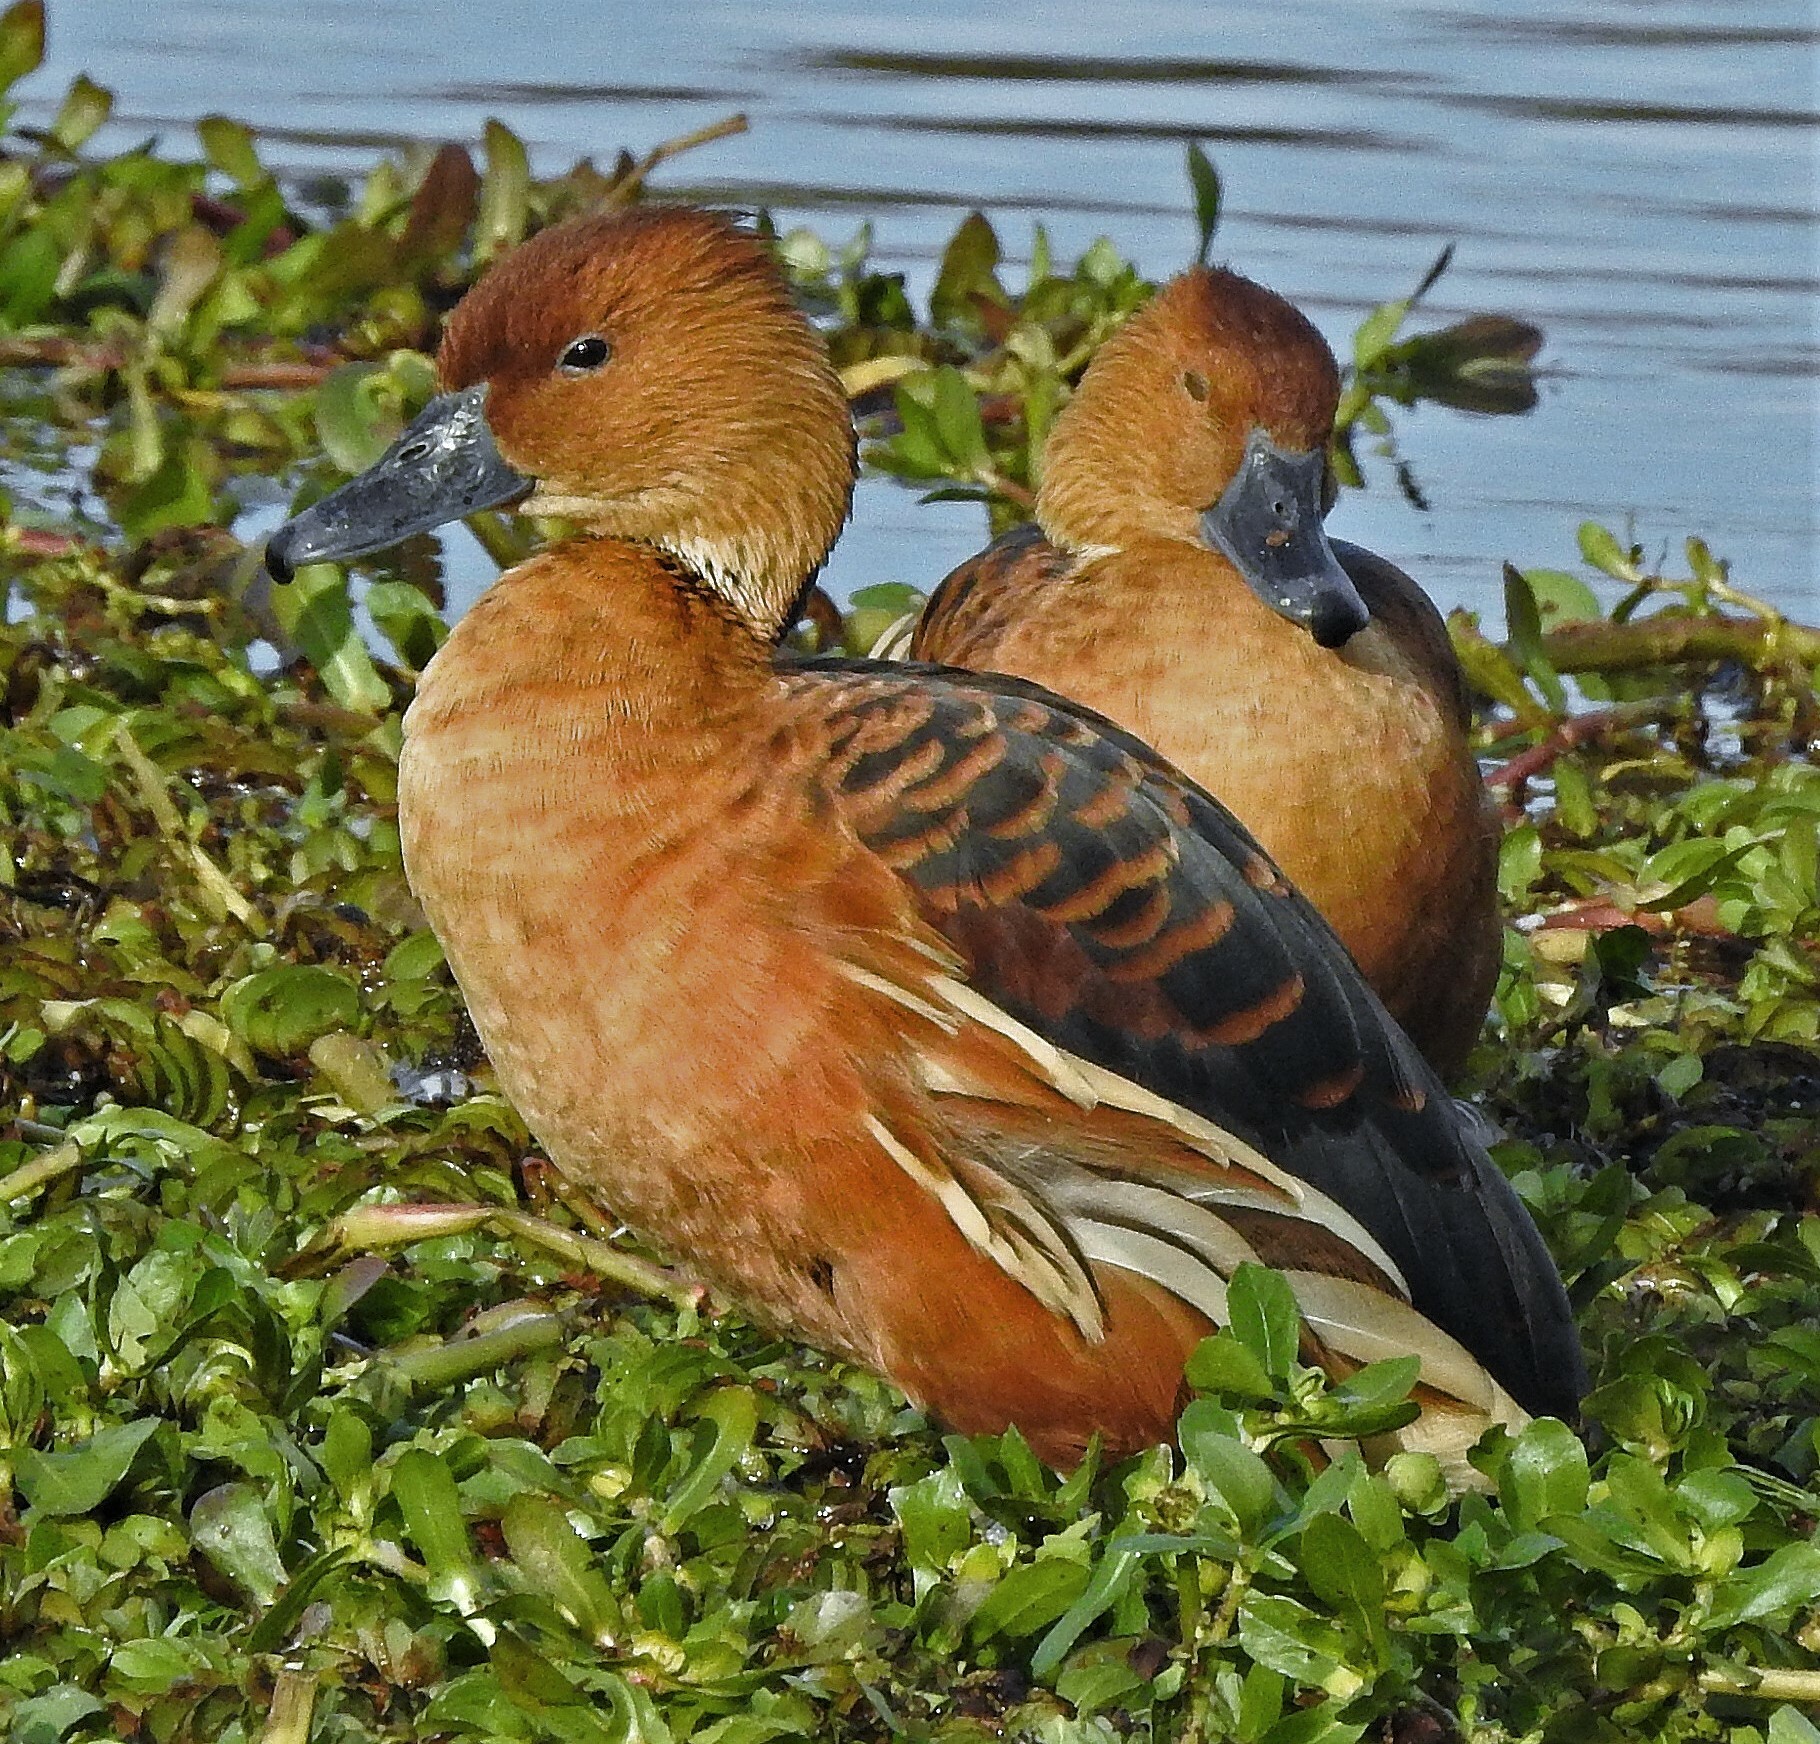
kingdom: Animalia
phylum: Chordata
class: Aves
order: Anseriformes
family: Anatidae
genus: Dendrocygna
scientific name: Dendrocygna bicolor
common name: Fulvous whistling duck
